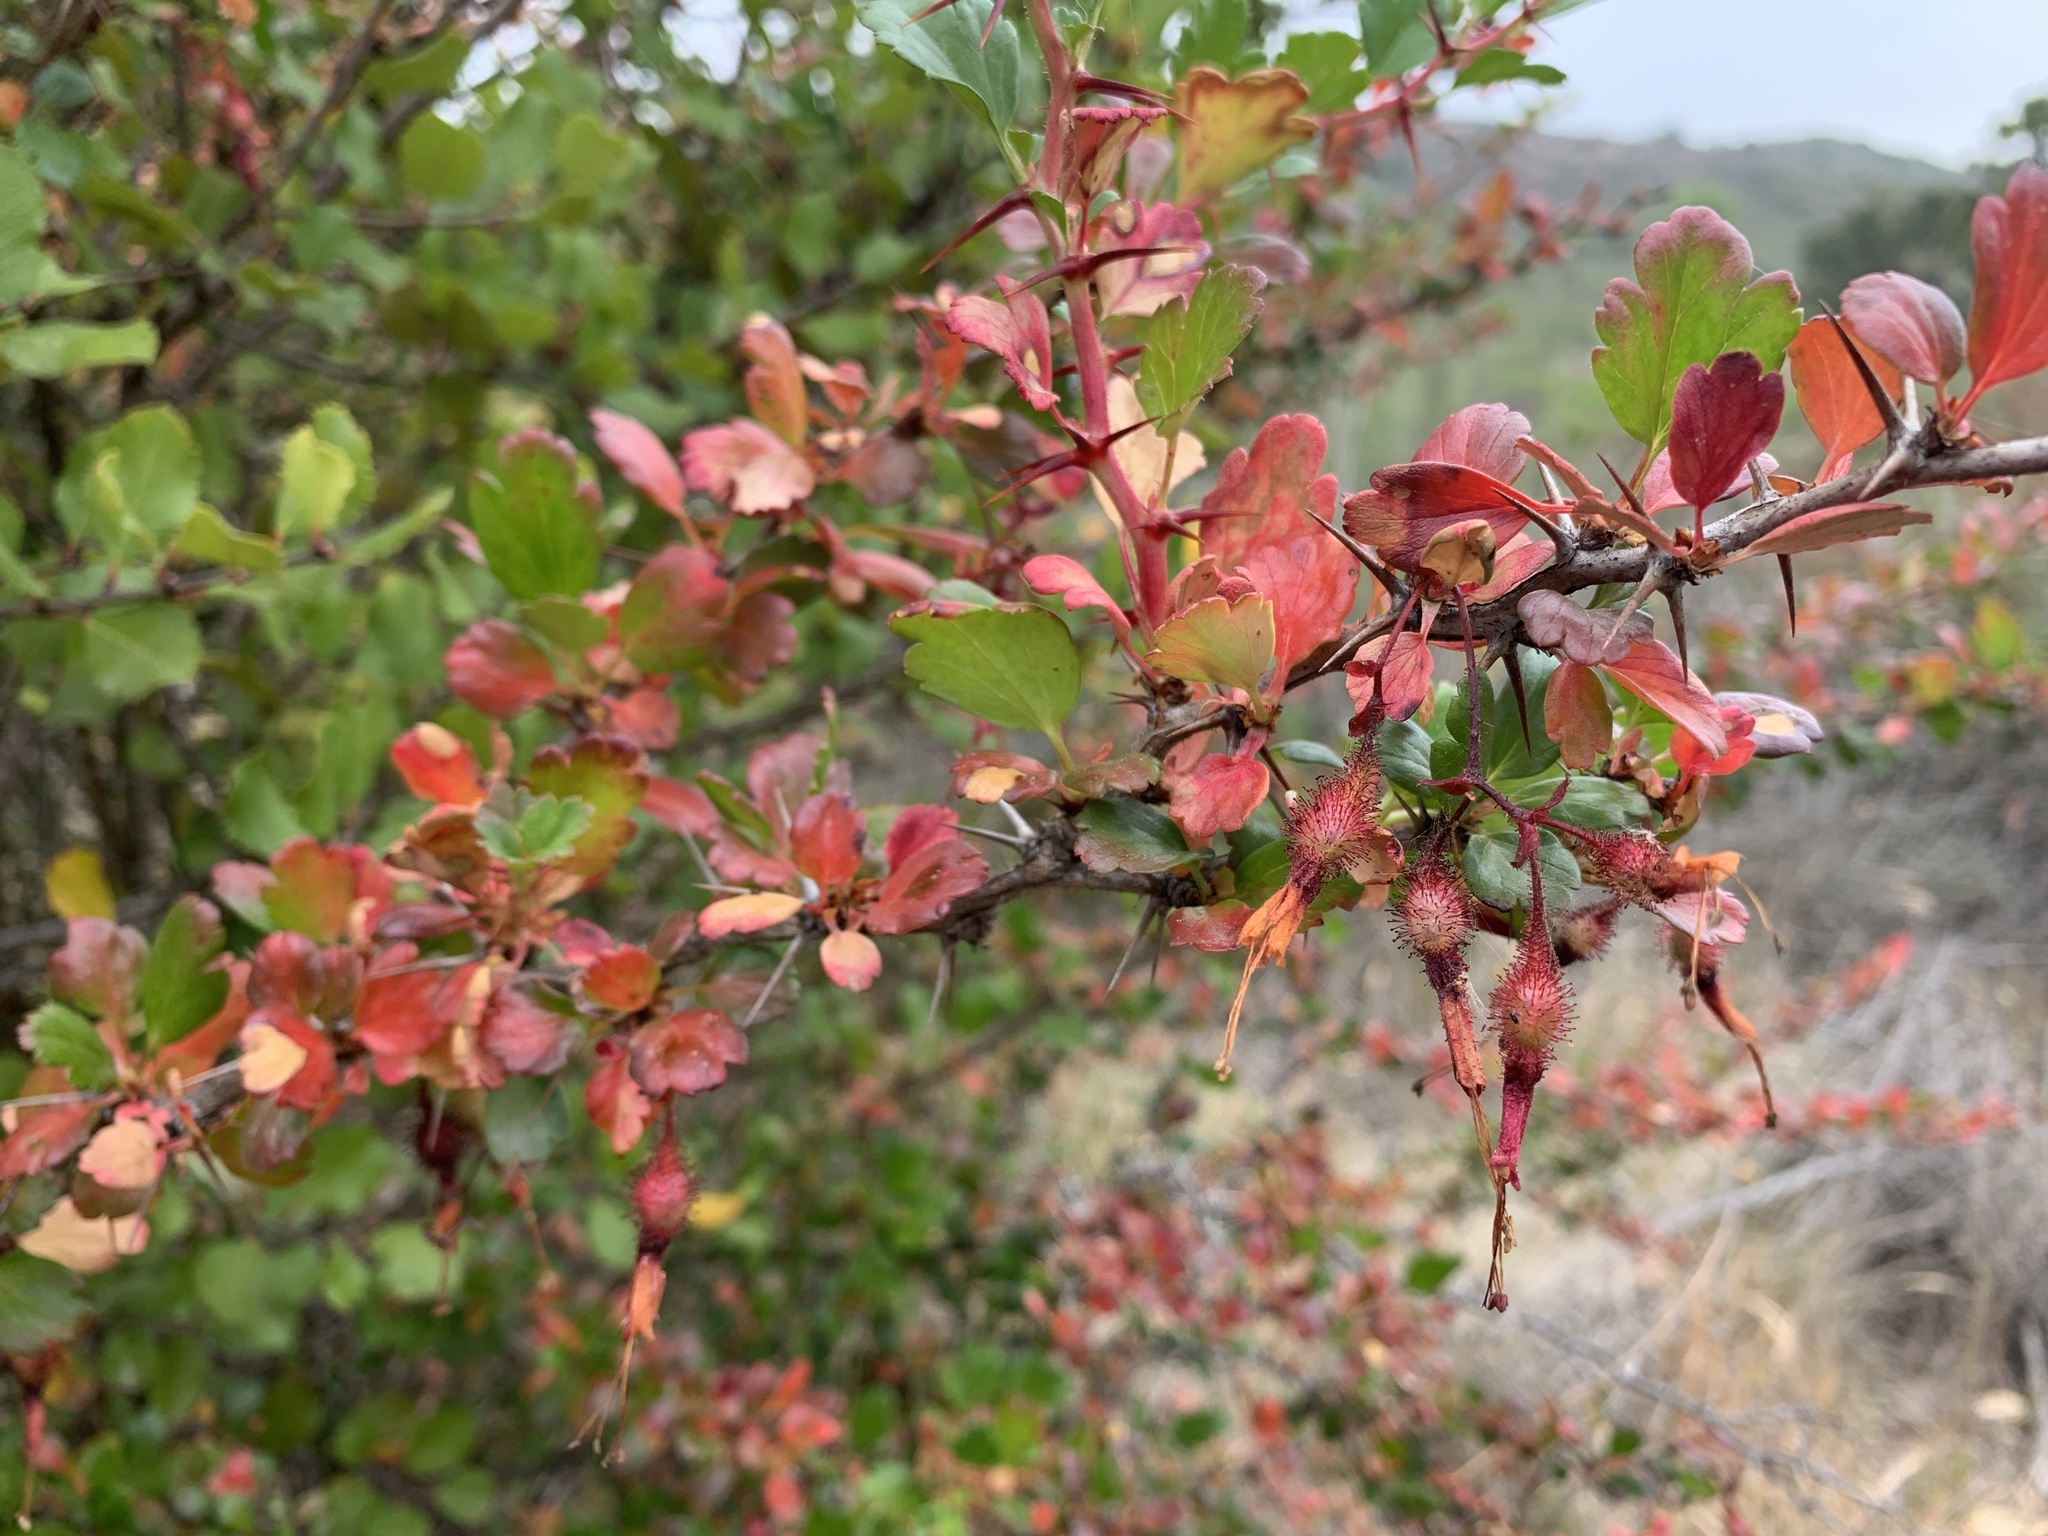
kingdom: Plantae
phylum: Tracheophyta
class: Magnoliopsida
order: Saxifragales
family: Grossulariaceae
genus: Ribes
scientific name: Ribes speciosum
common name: Fuchsia-flower gooseberry
